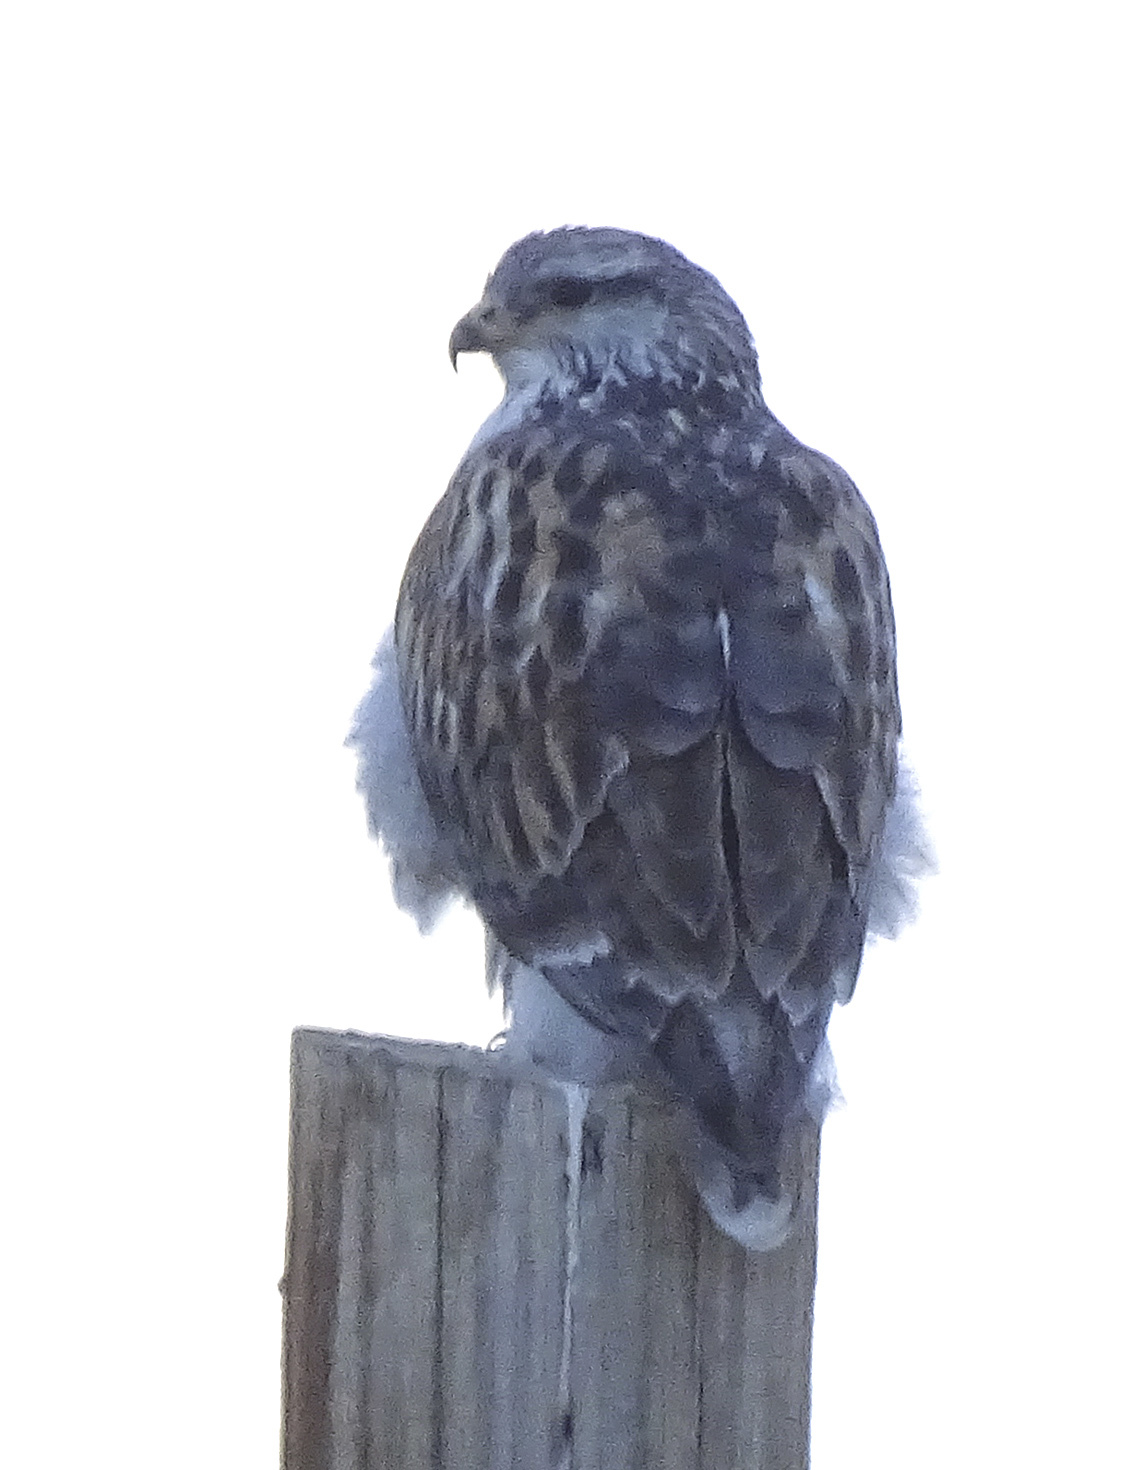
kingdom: Animalia
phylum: Chordata
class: Aves
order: Accipitriformes
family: Accipitridae
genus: Buteo
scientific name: Buteo regalis
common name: Ferruginous hawk
